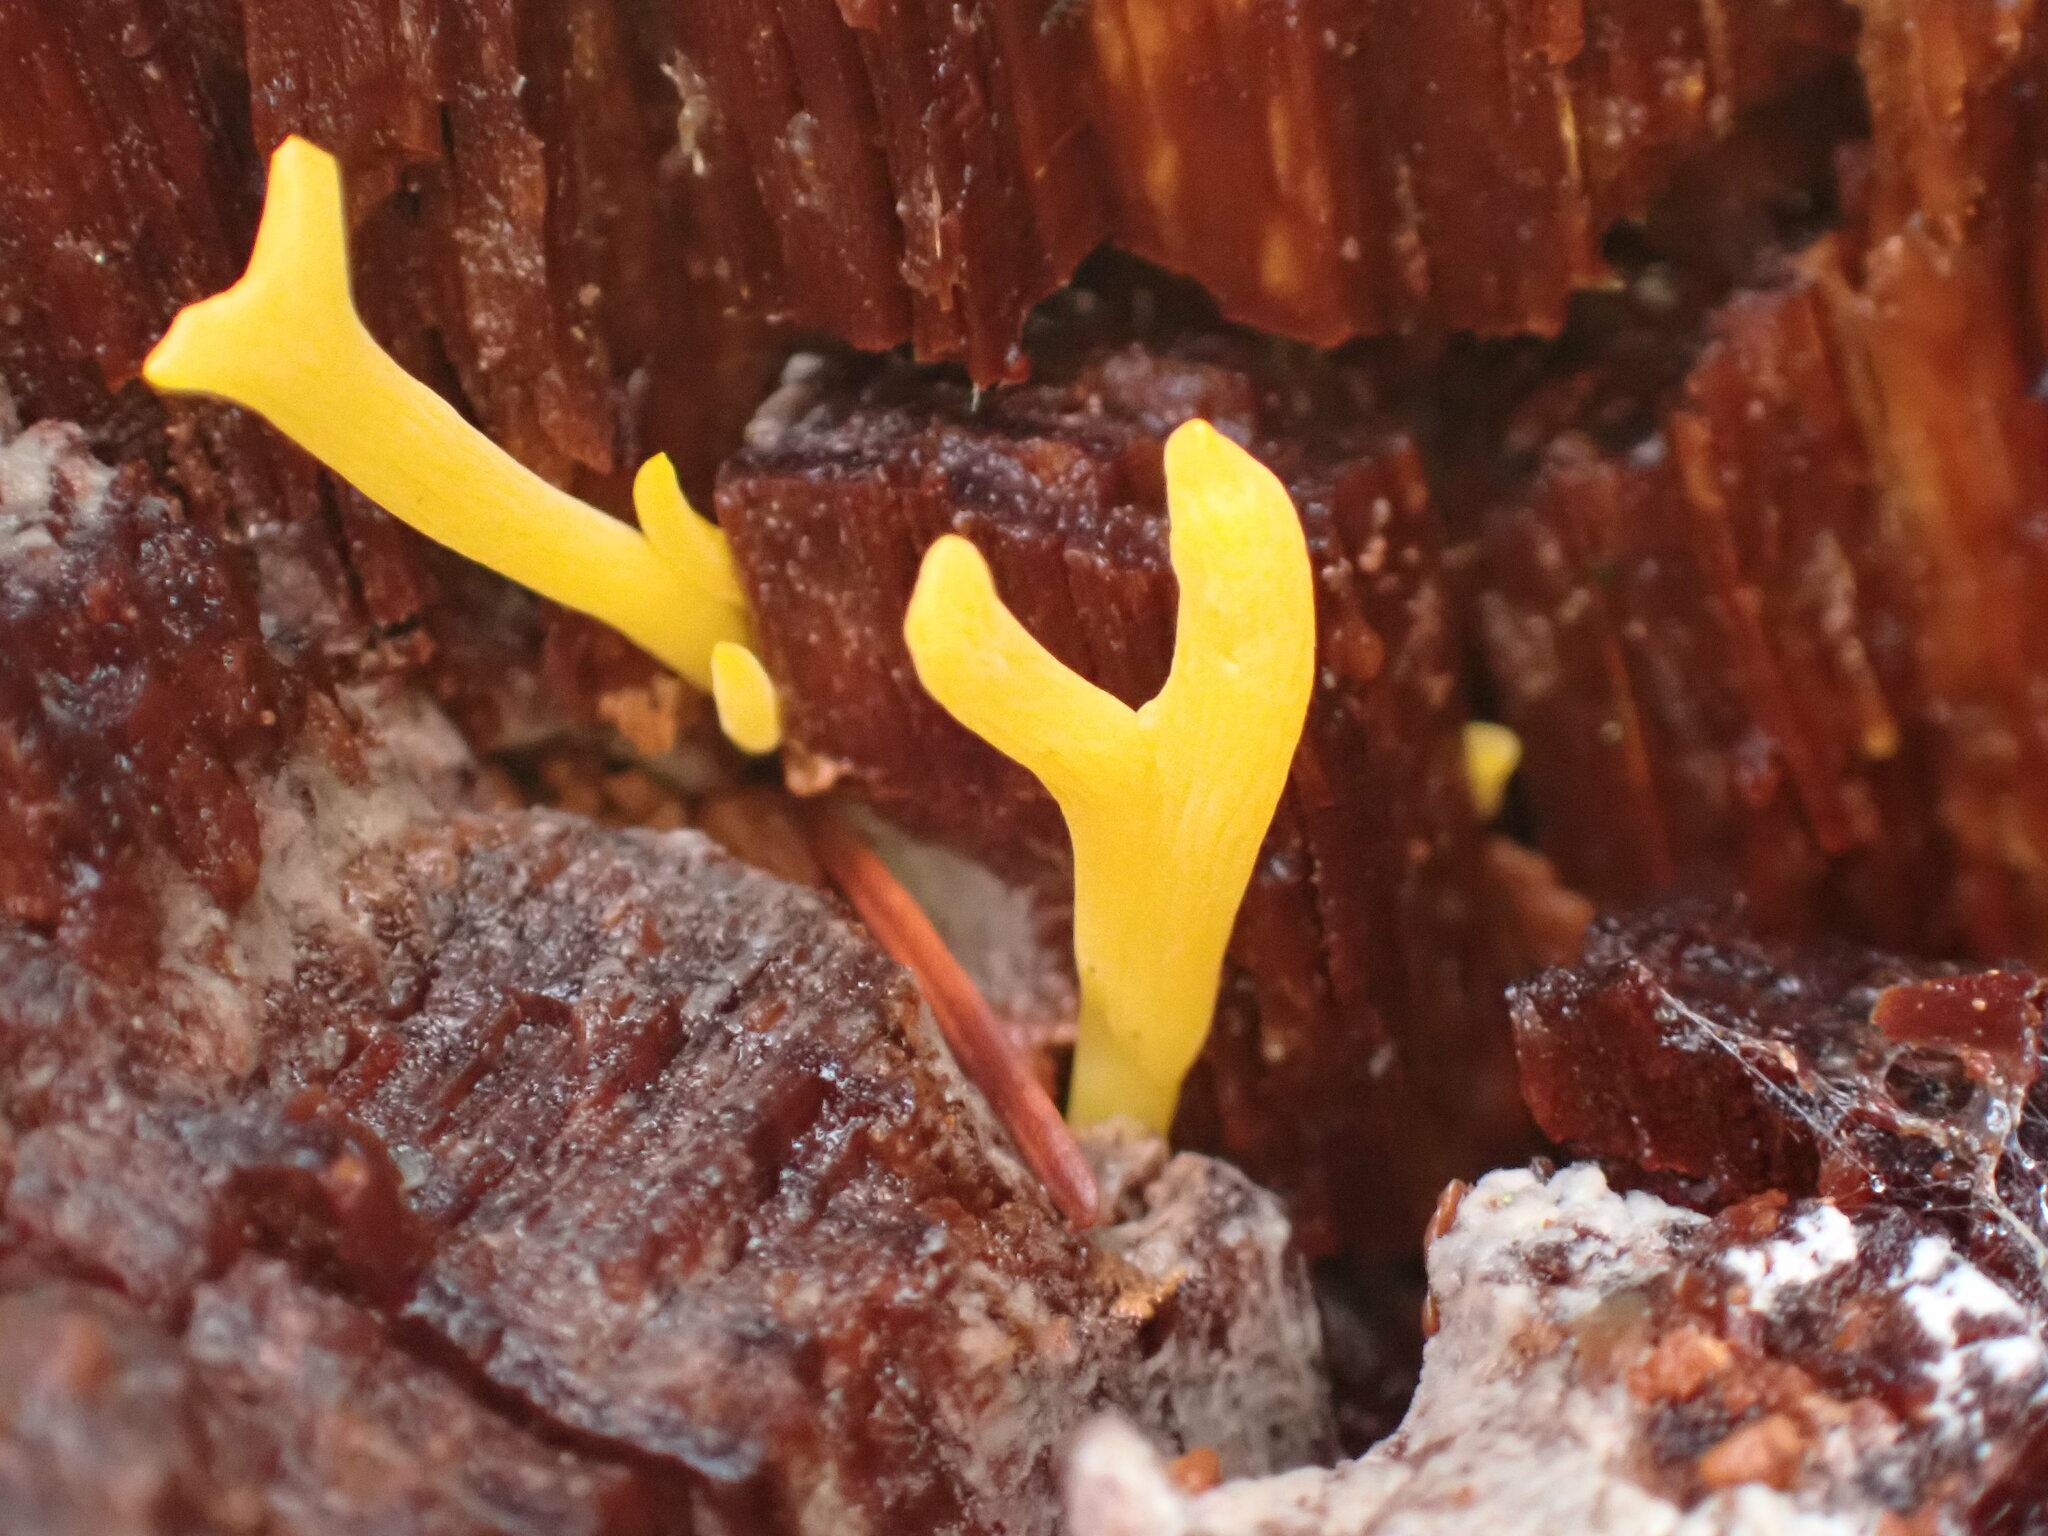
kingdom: Fungi
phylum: Basidiomycota
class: Dacrymycetes
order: Dacrymycetales
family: Dacrymycetaceae
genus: Calocera
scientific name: Calocera viscosa
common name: Yellow stagshorn
